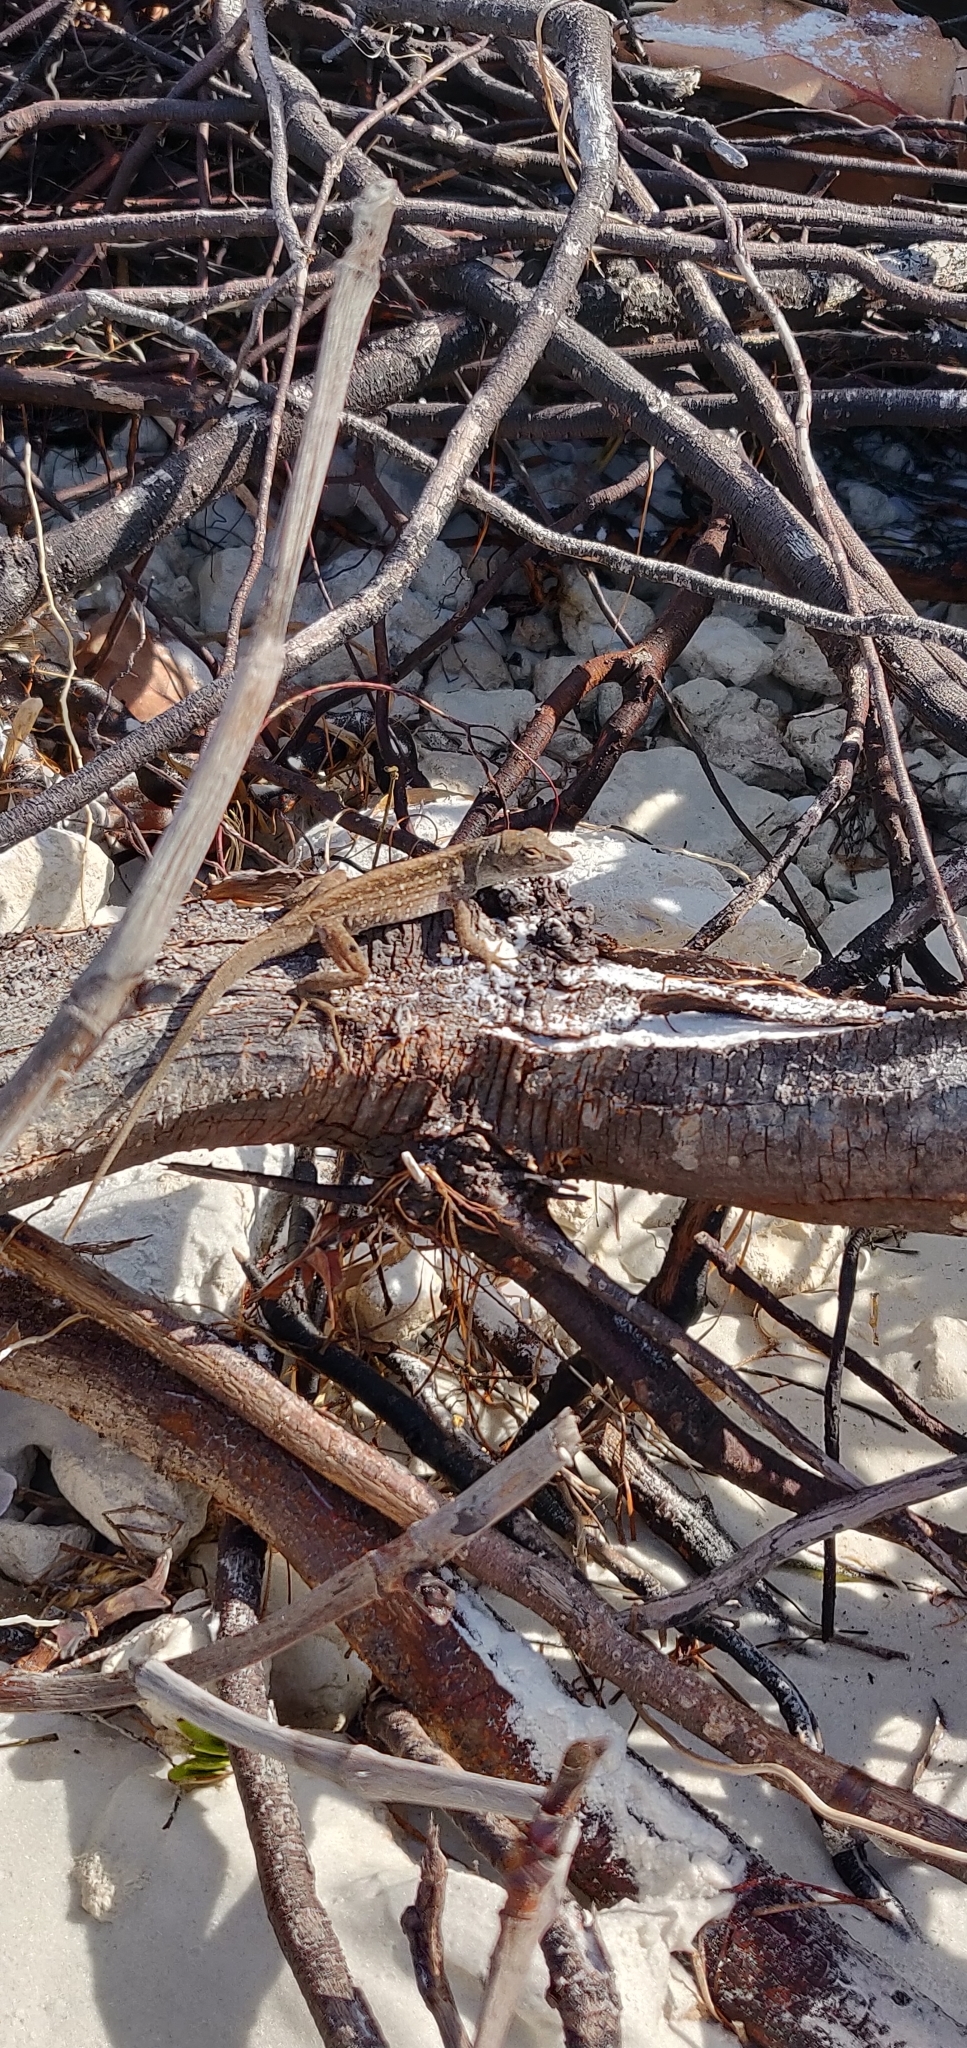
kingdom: Animalia
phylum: Chordata
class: Squamata
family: Dactyloidae
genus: Anolis
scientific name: Anolis sagrei
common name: Brown anole
